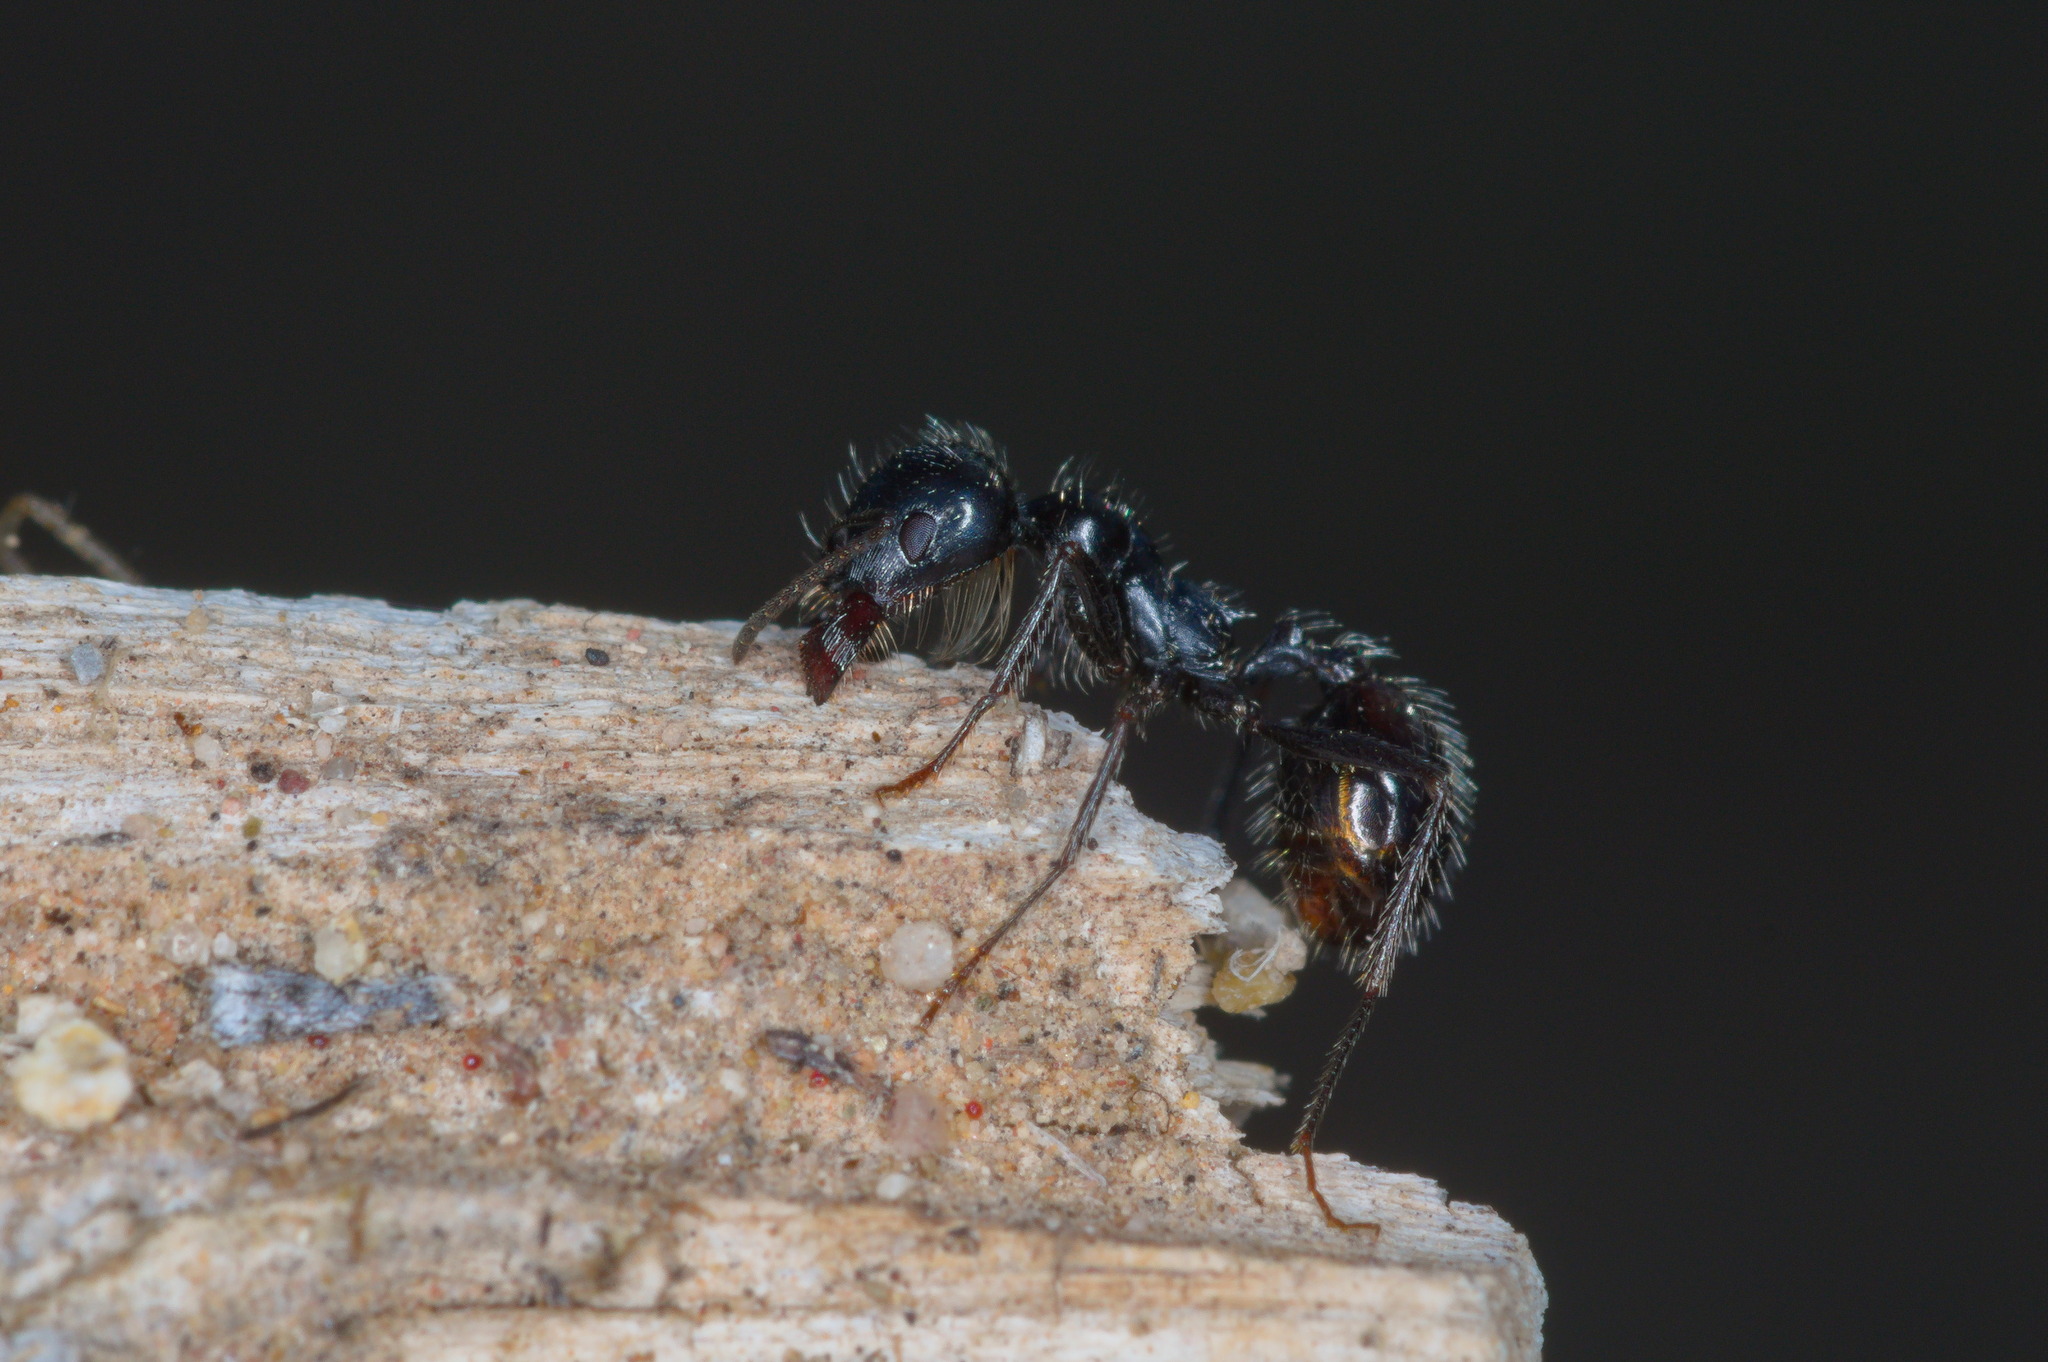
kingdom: Animalia
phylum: Arthropoda
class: Insecta
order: Hymenoptera
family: Formicidae
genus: Messor
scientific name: Messor pergandei
